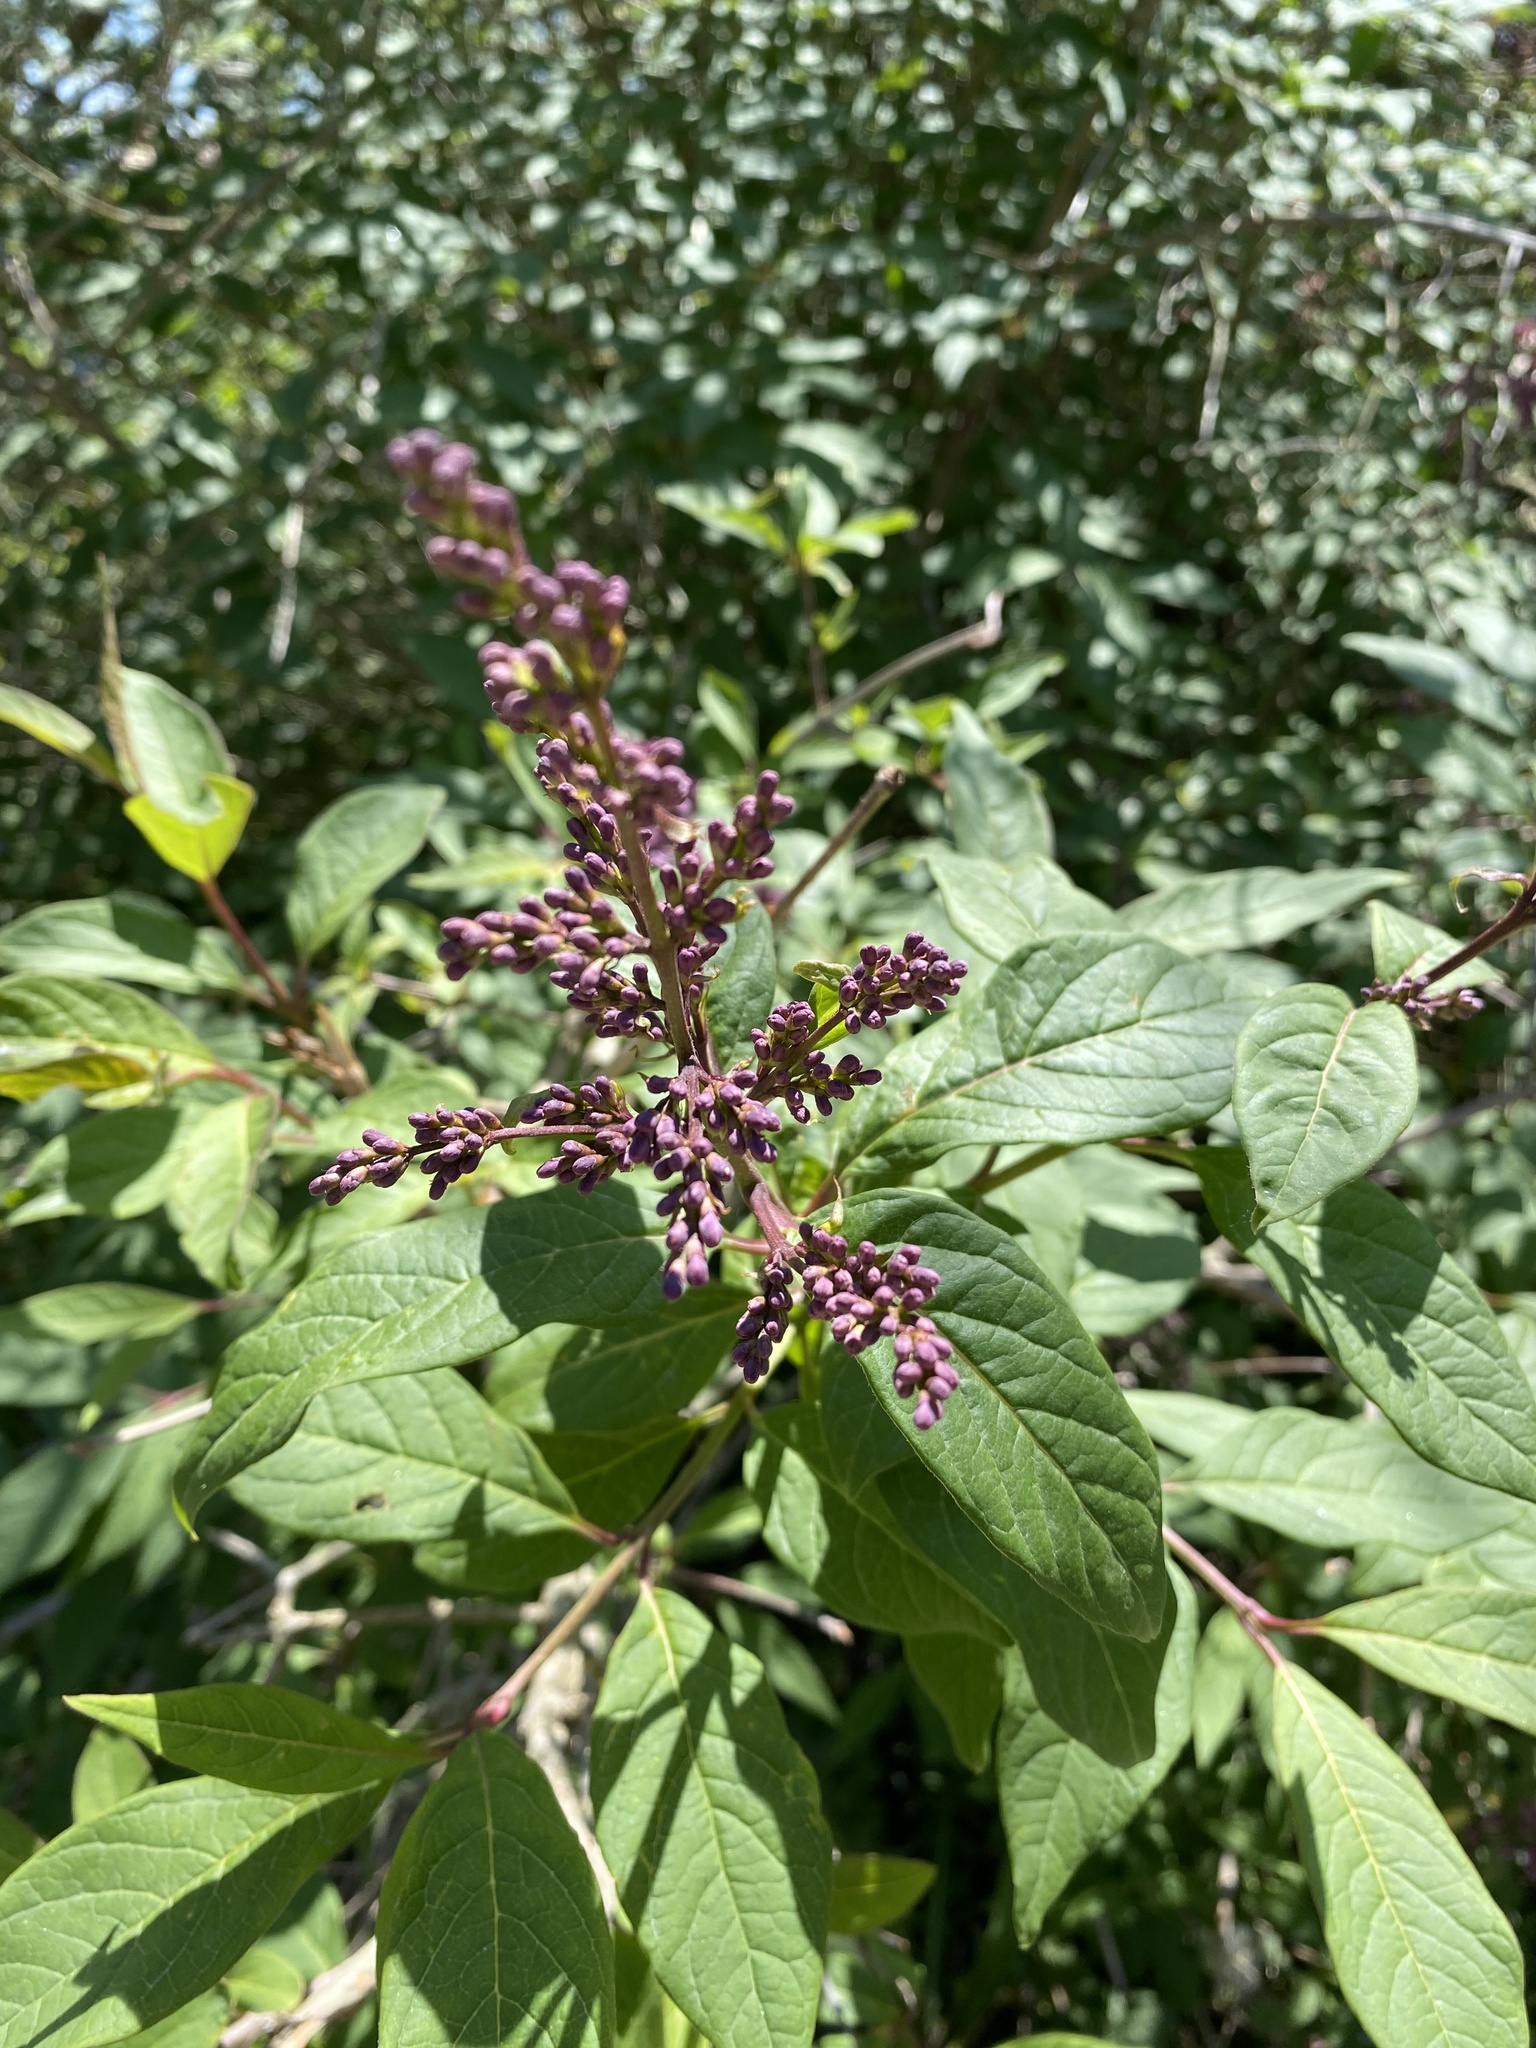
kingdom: Plantae
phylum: Tracheophyta
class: Magnoliopsida
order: Lamiales
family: Oleaceae
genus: Syringa
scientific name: Syringa josikaea
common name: Hungarian lilac
